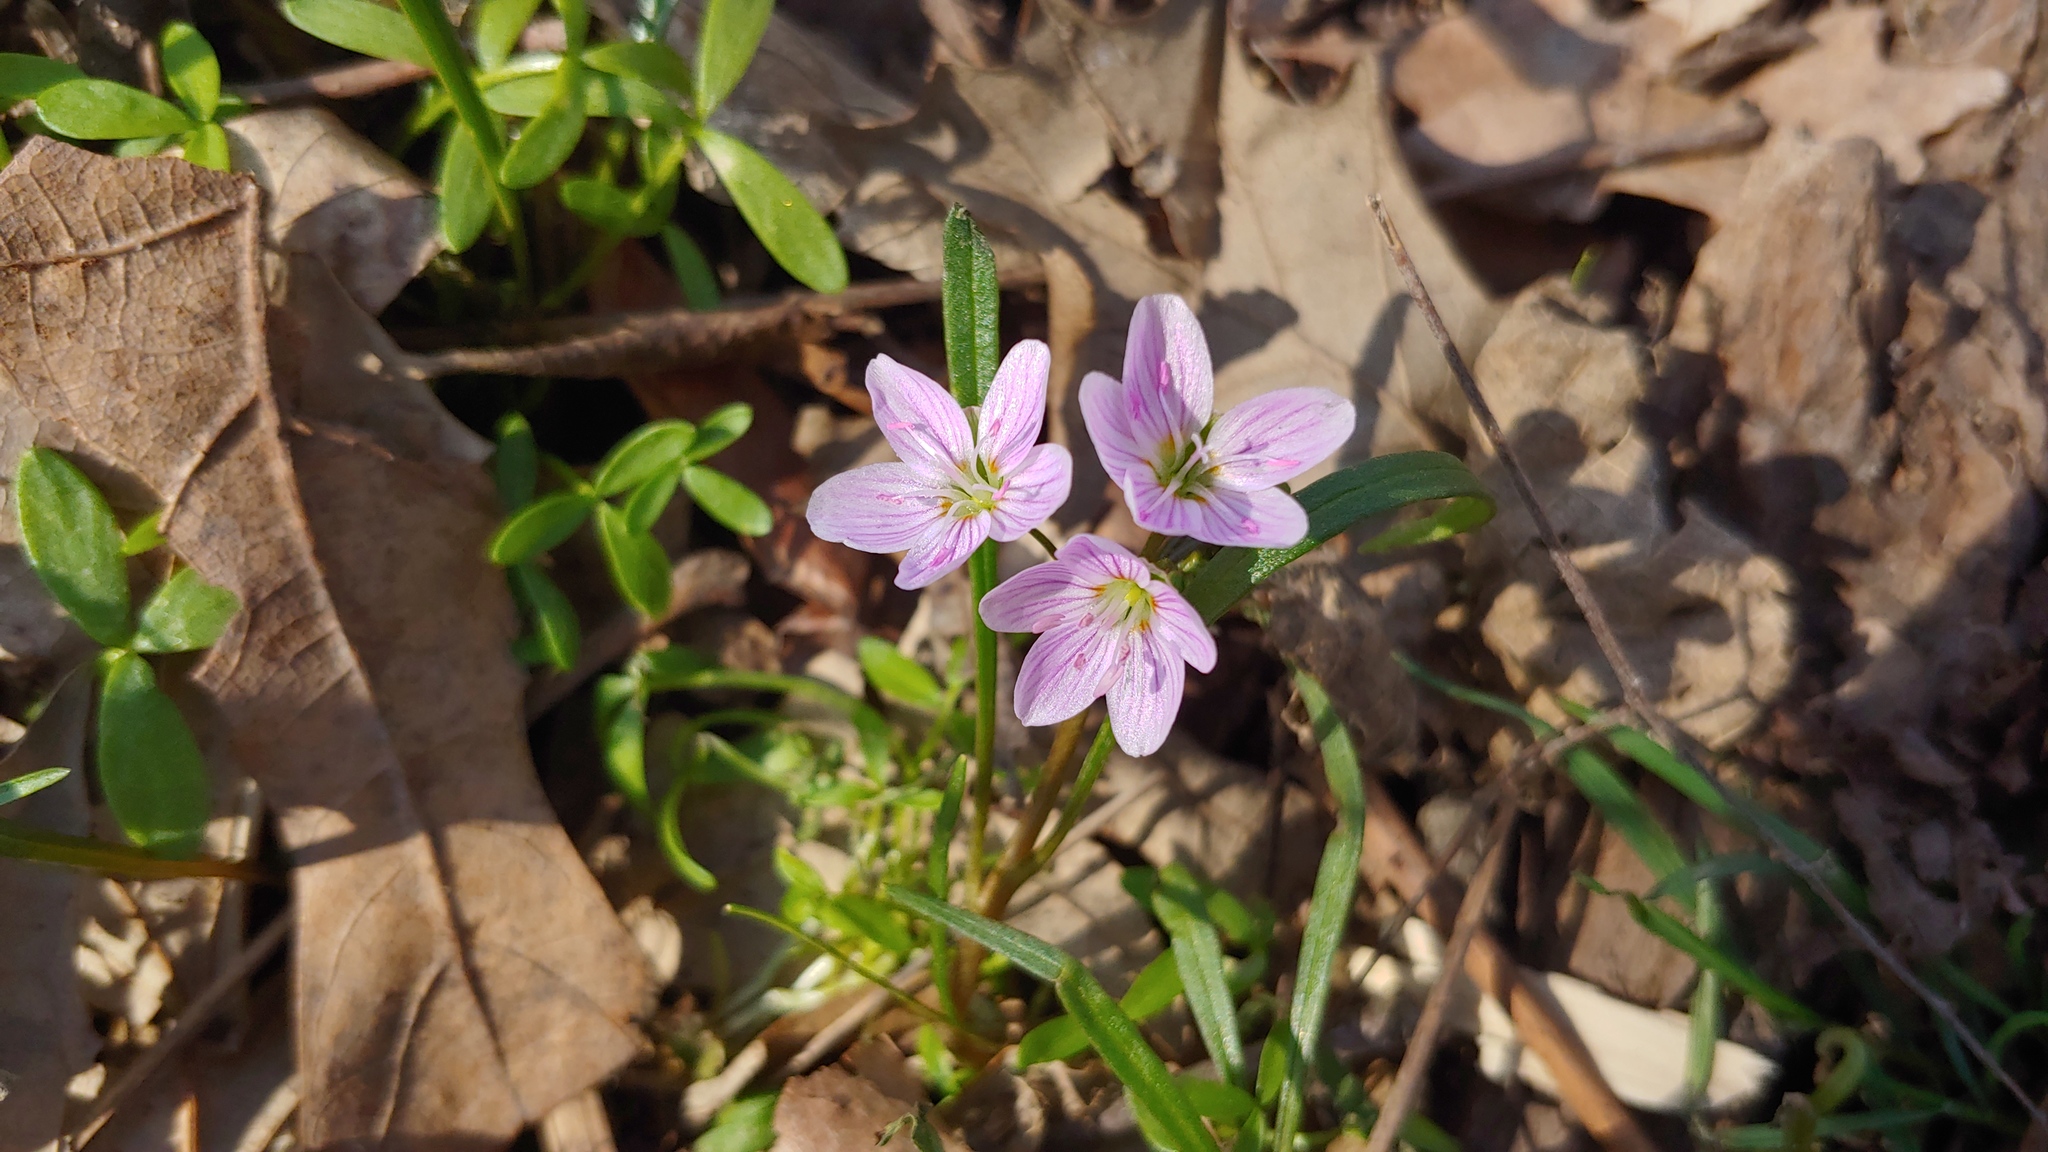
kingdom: Plantae
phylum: Tracheophyta
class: Magnoliopsida
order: Caryophyllales
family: Montiaceae
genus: Claytonia
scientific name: Claytonia virginica
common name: Virginia springbeauty
